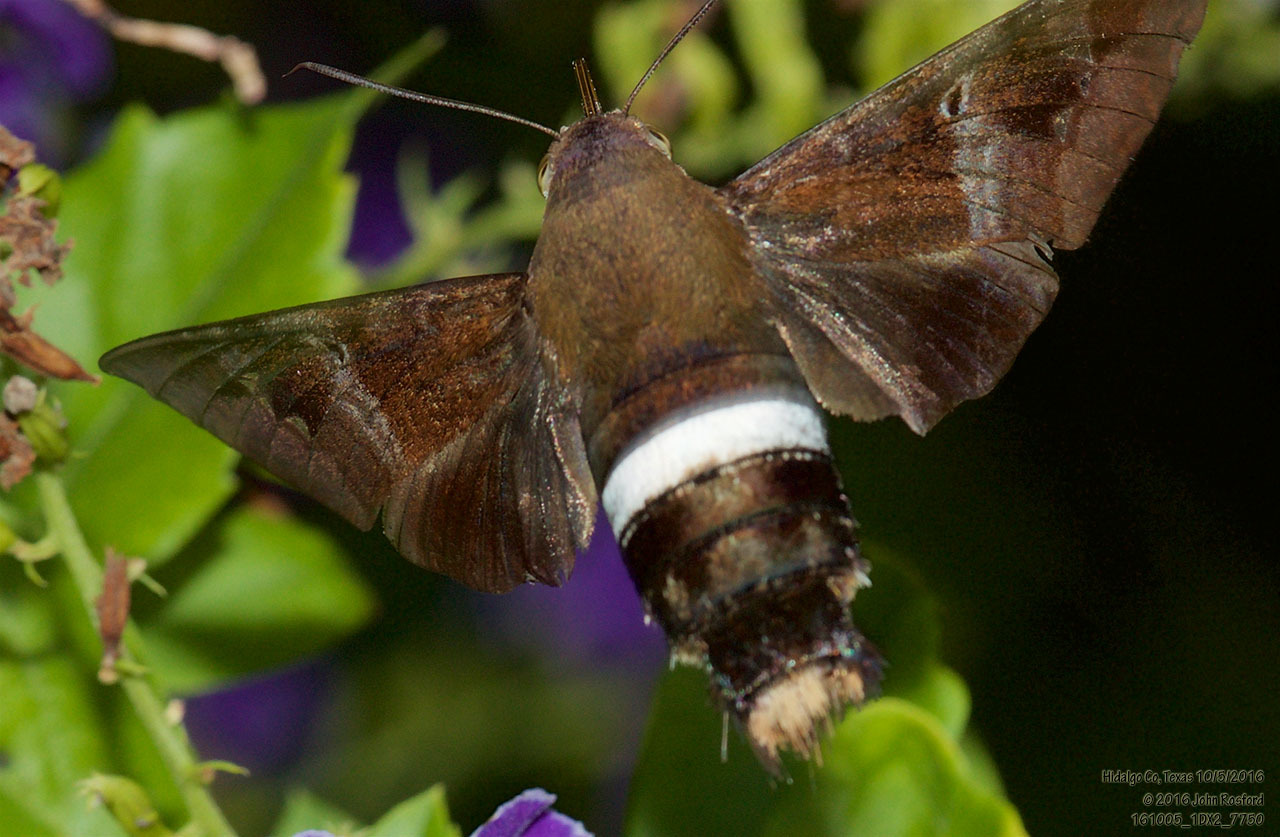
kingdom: Animalia
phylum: Arthropoda
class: Insecta
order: Lepidoptera
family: Sphingidae
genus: Aellopos
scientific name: Aellopos clavipes
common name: Clavipes sphinx
